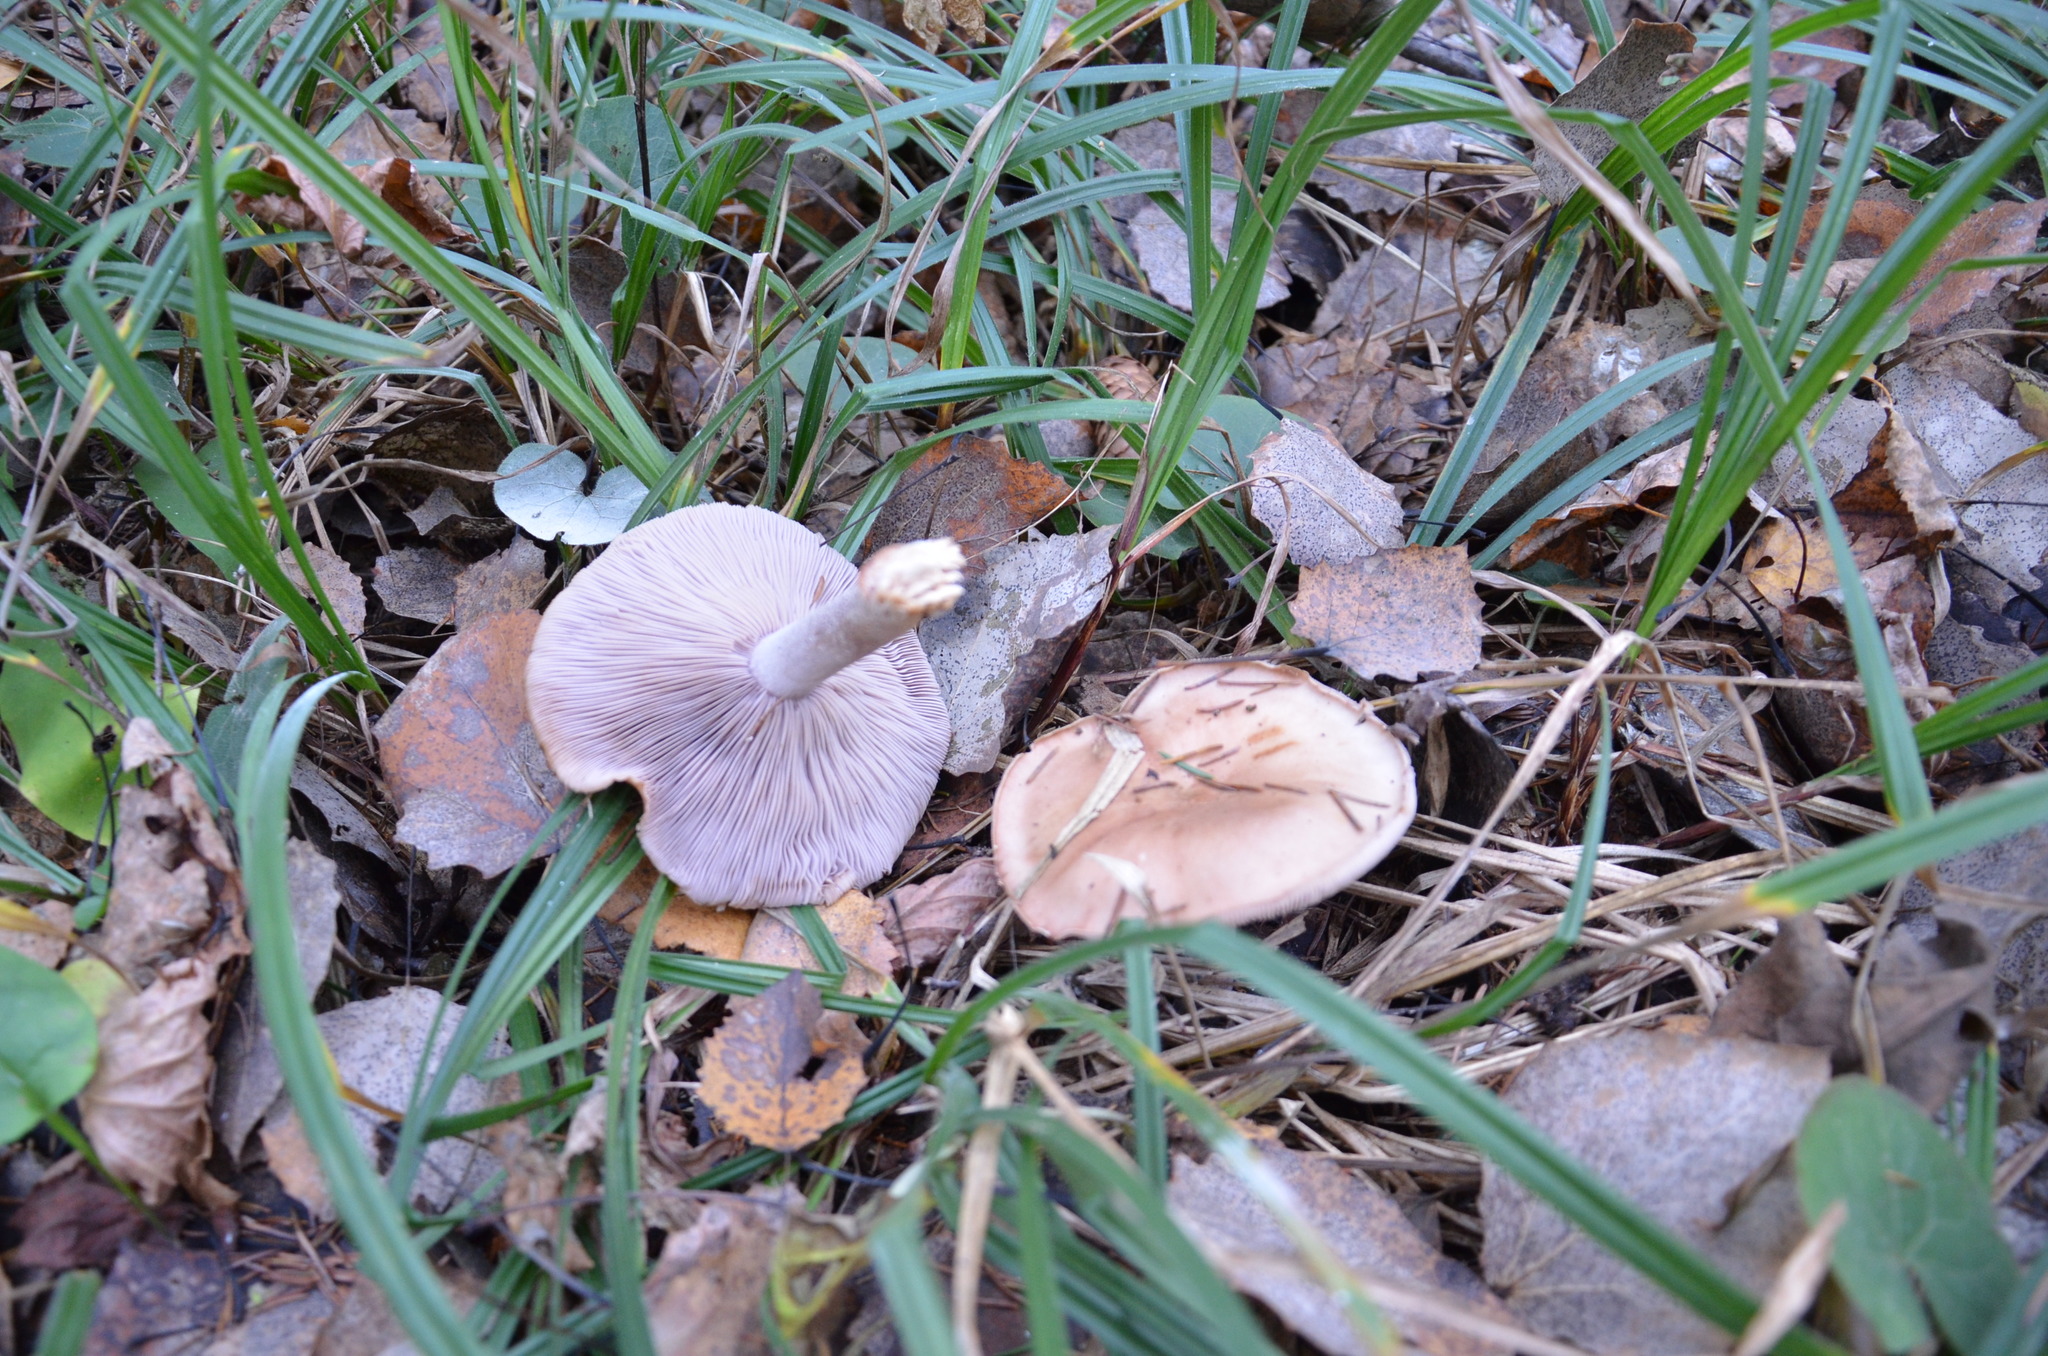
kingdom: Fungi
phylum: Basidiomycota
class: Agaricomycetes
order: Agaricales
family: Tricholomataceae
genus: Collybia
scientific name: Collybia
